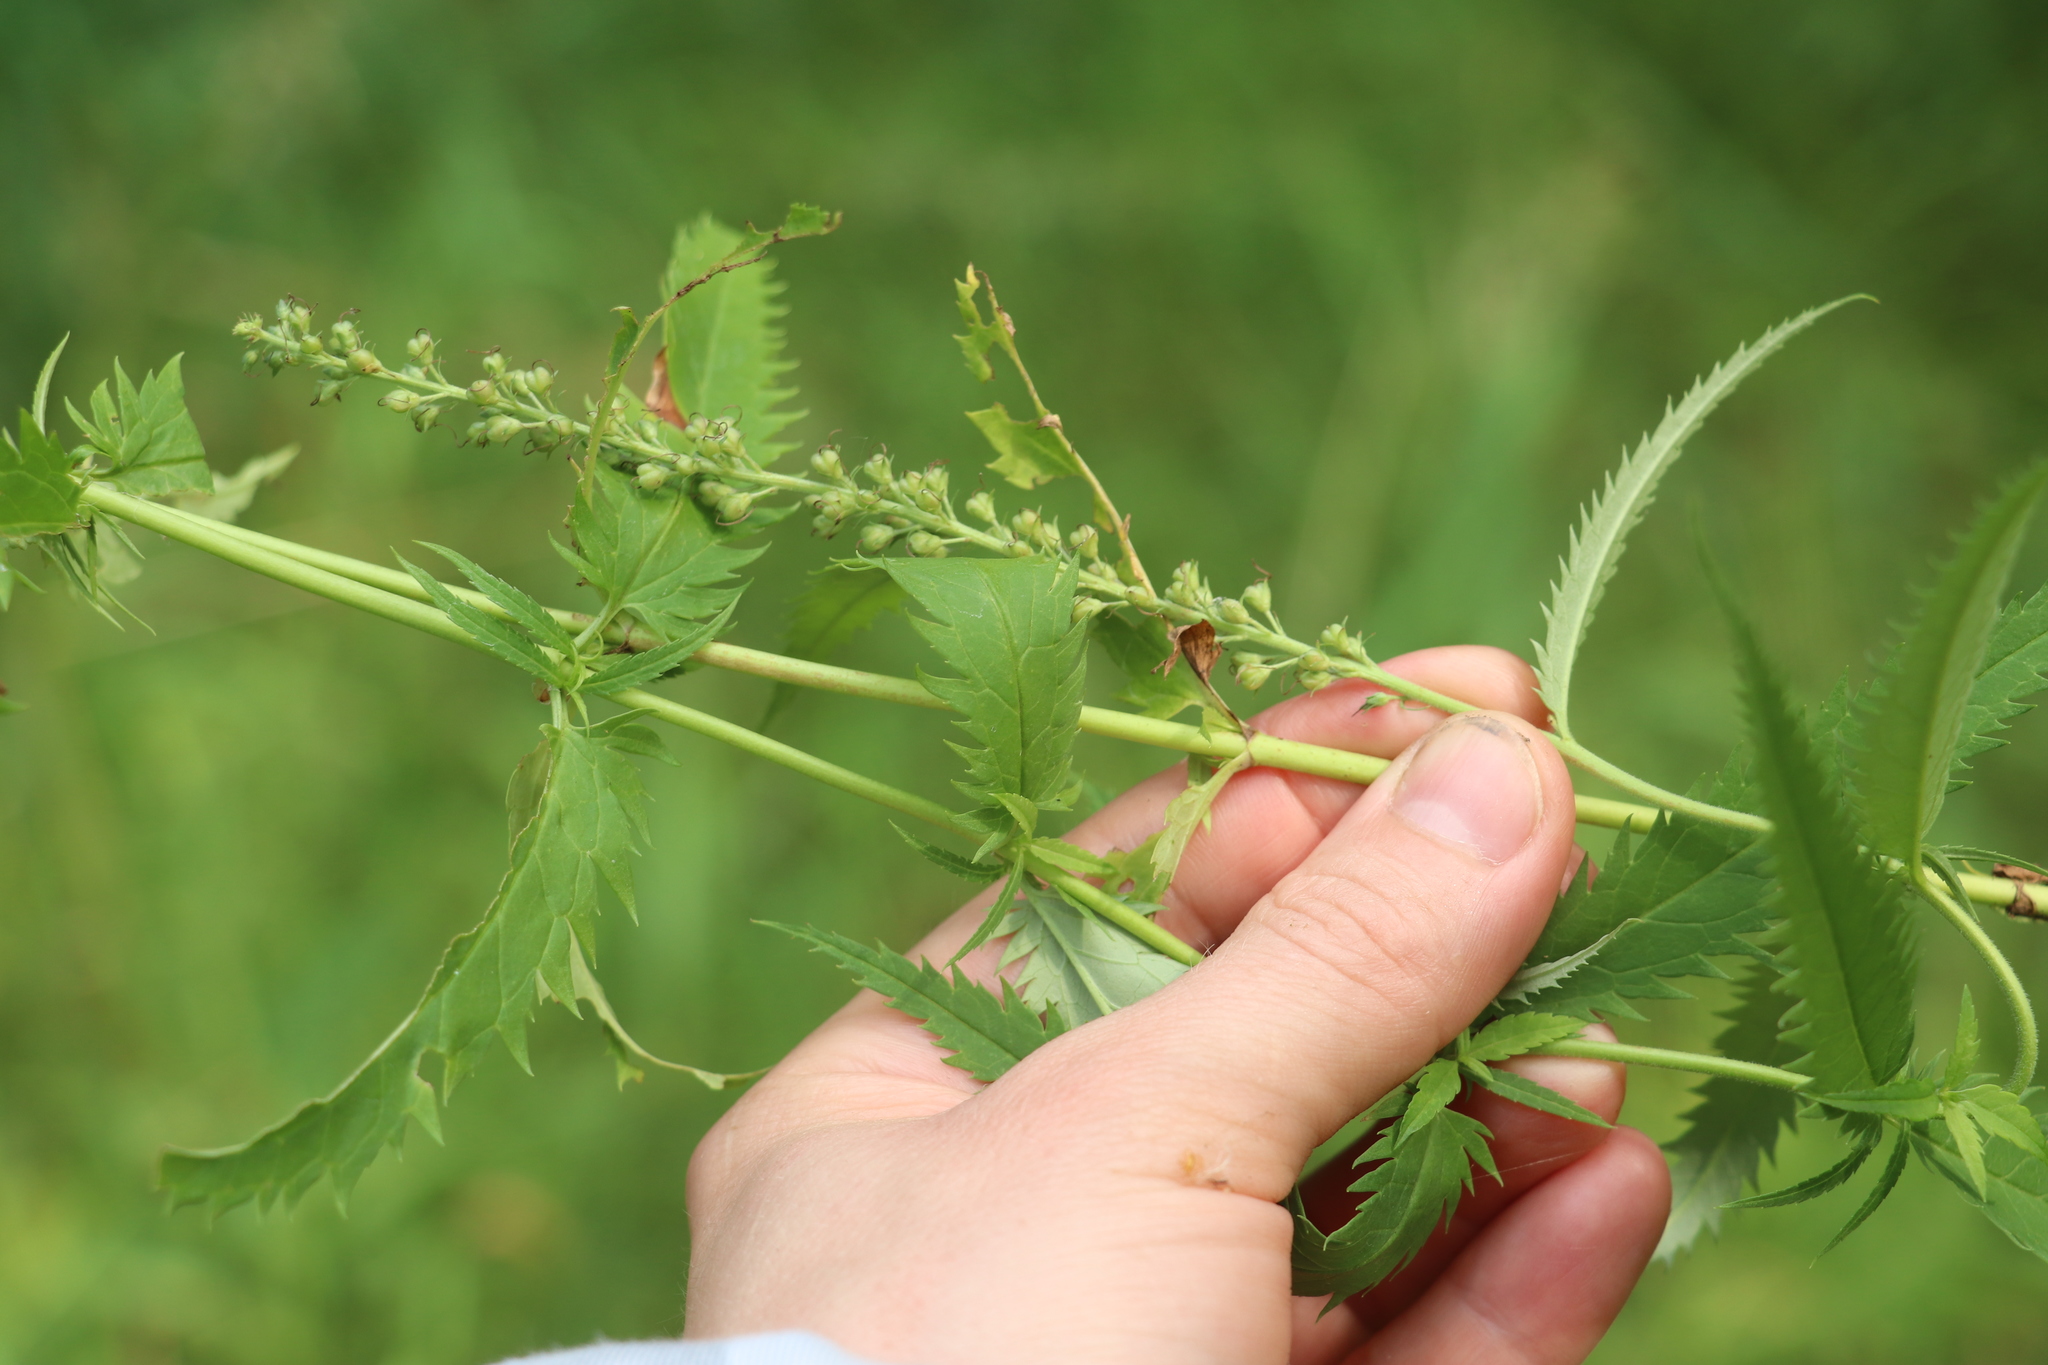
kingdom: Plantae
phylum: Tracheophyta
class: Magnoliopsida
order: Lamiales
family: Plantaginaceae
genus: Veronica
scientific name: Veronica longifolia
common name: Garden speedwell
